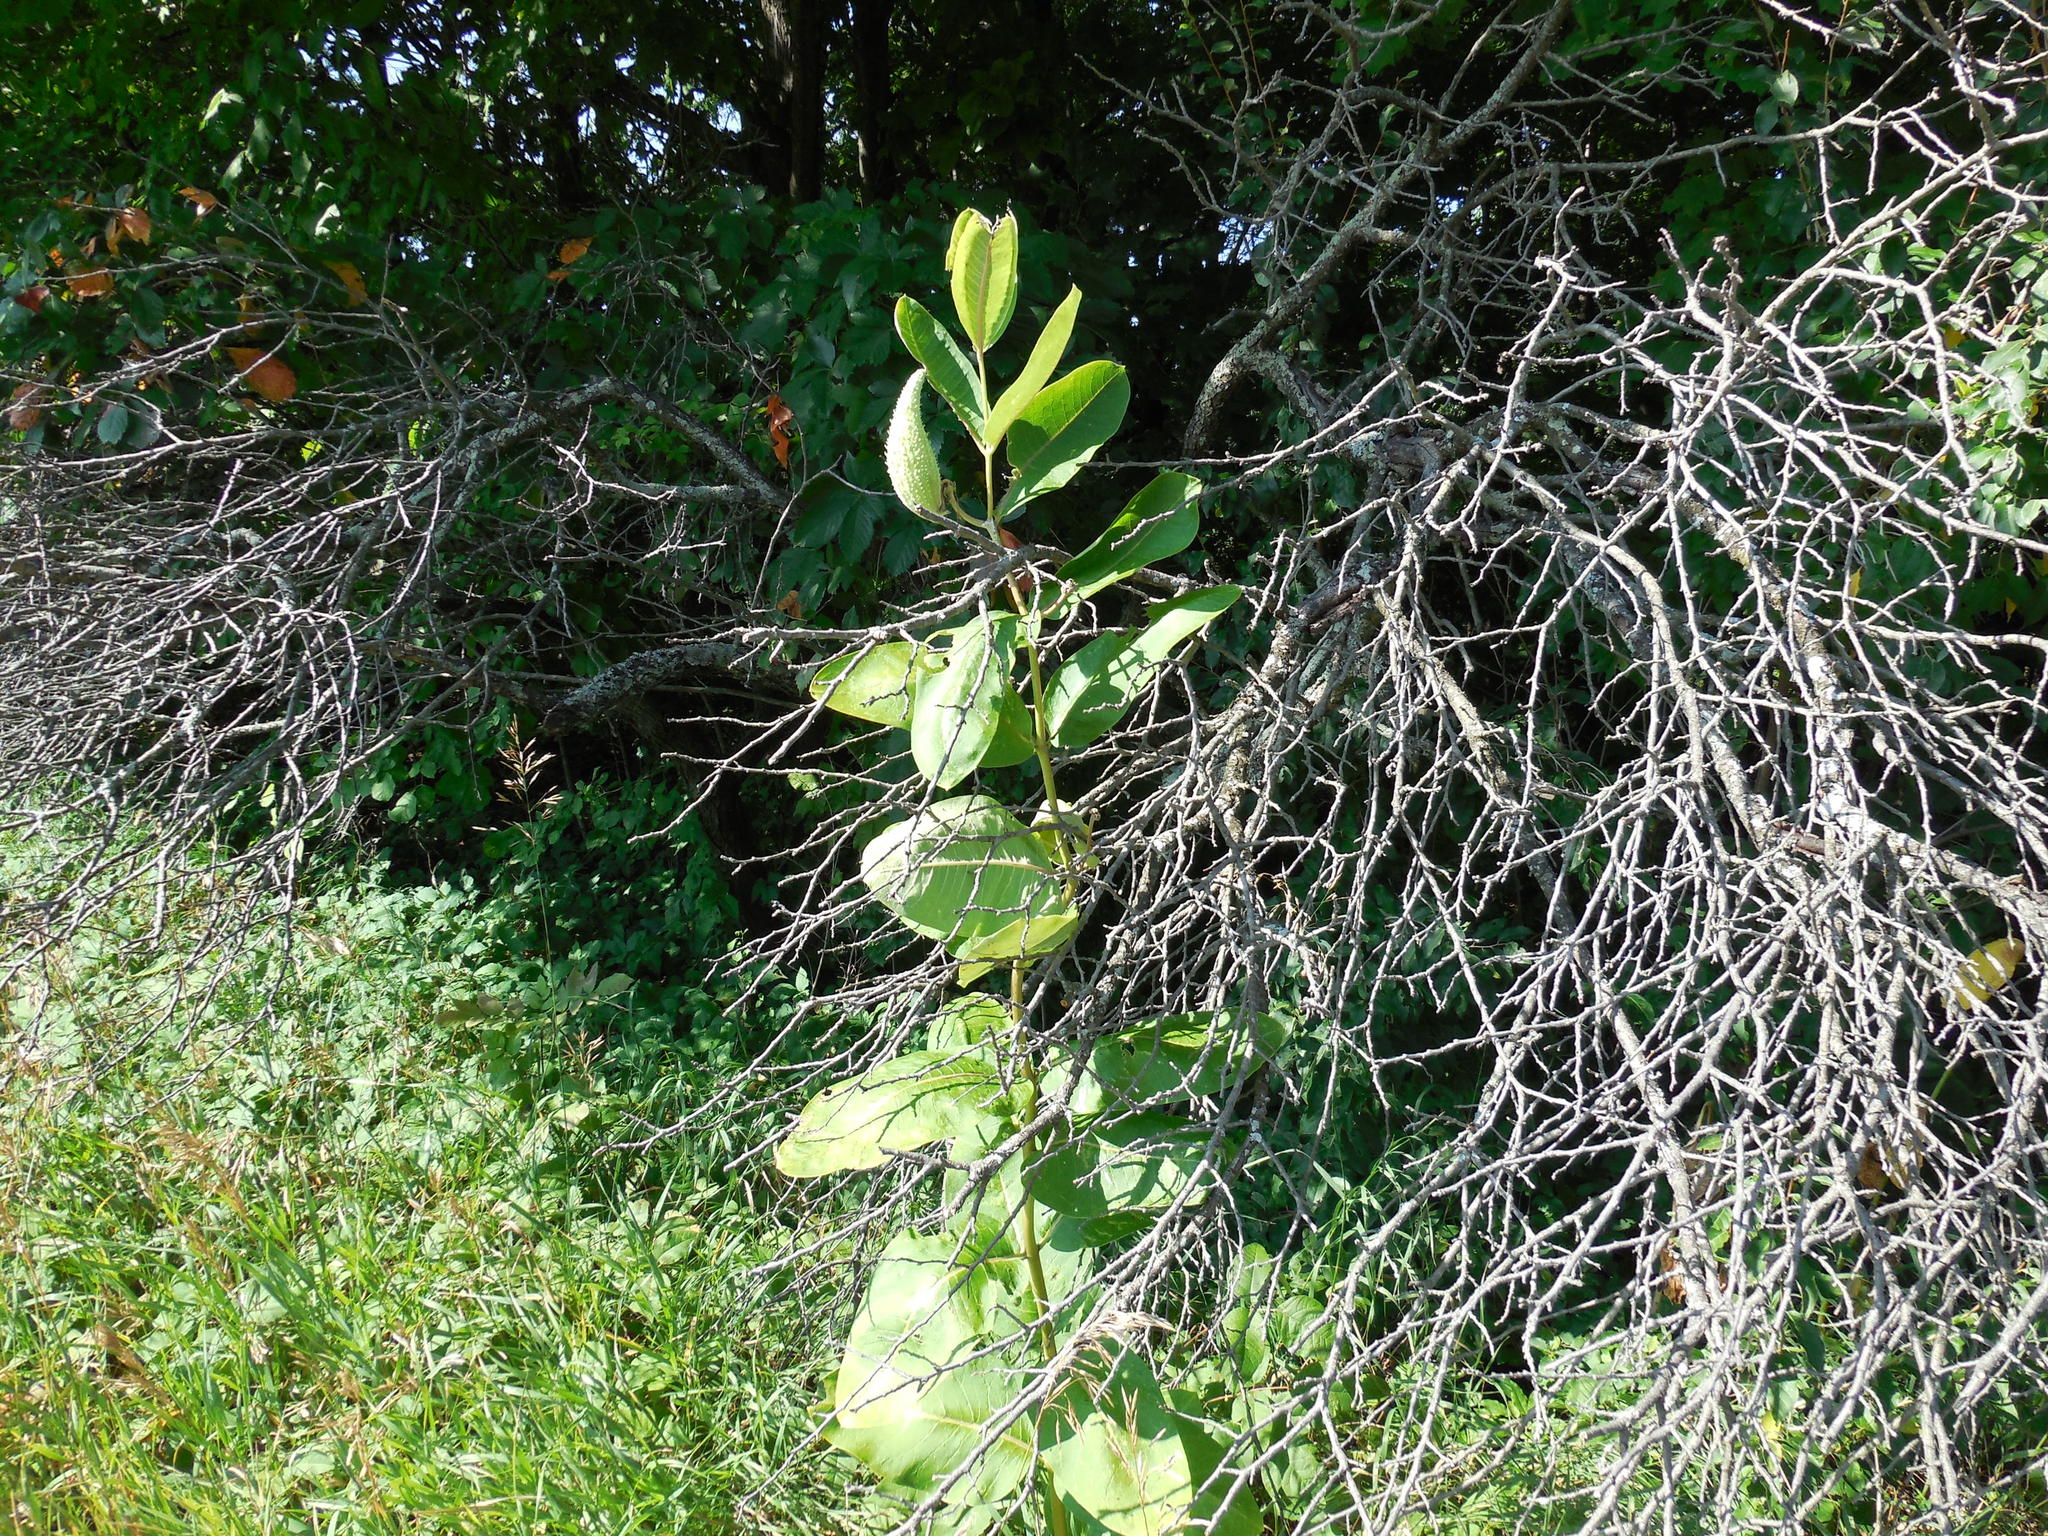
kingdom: Plantae
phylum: Tracheophyta
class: Magnoliopsida
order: Gentianales
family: Apocynaceae
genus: Asclepias
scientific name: Asclepias syriaca
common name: Common milkweed
